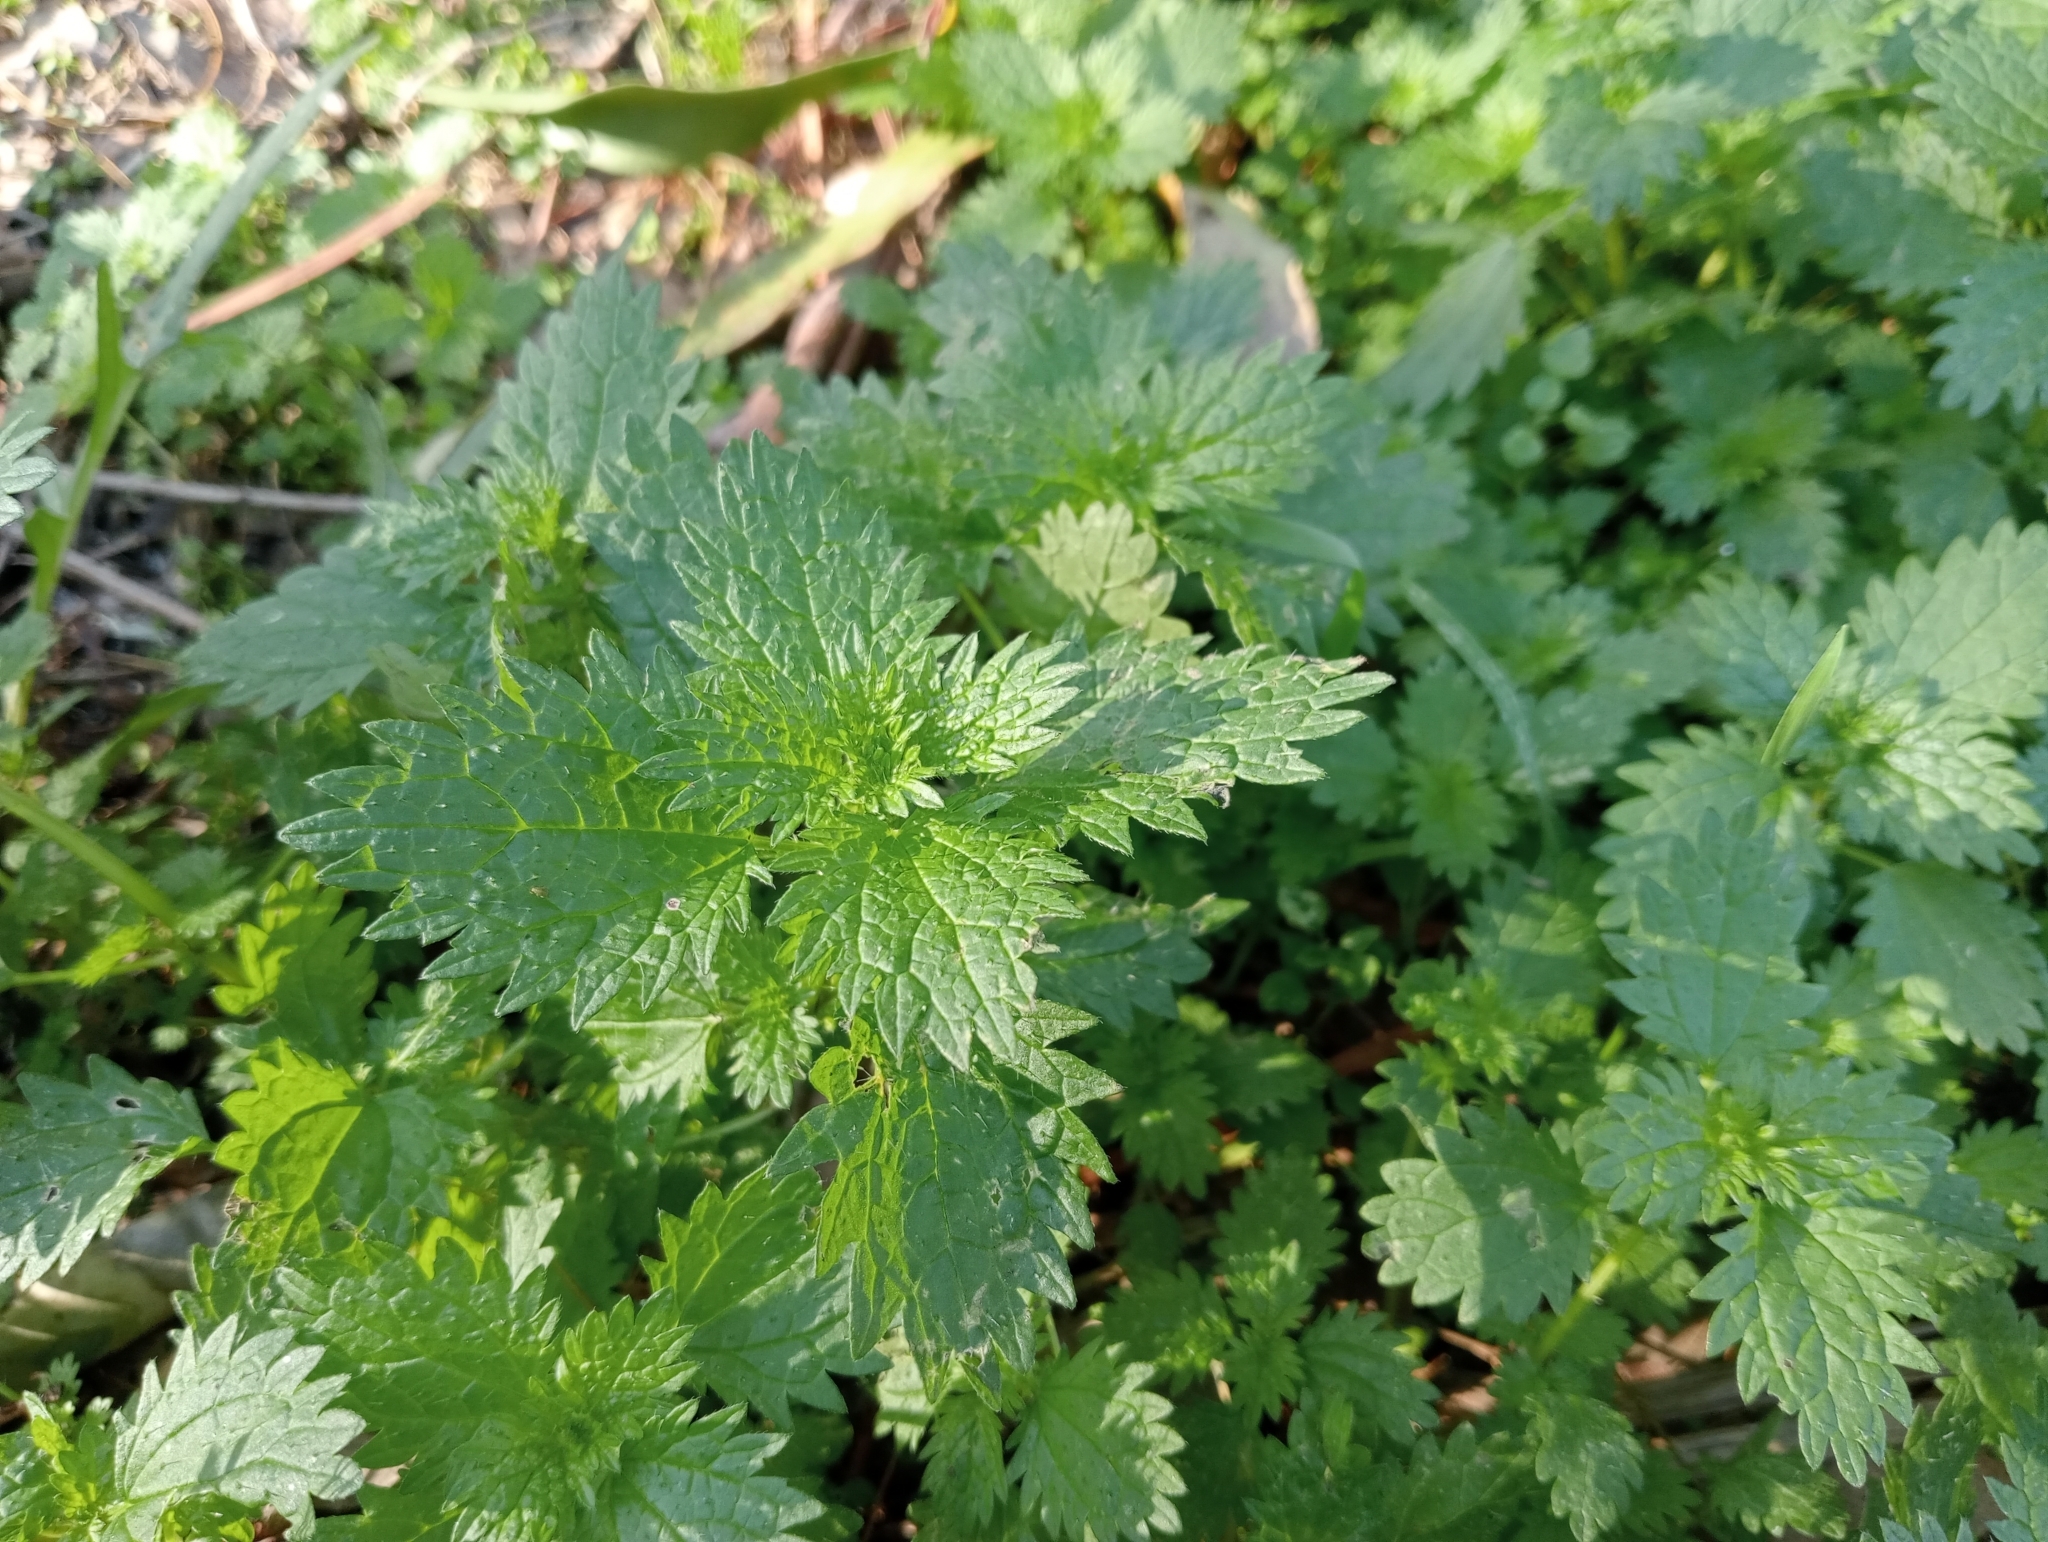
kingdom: Plantae
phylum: Tracheophyta
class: Magnoliopsida
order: Rosales
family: Urticaceae
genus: Urtica
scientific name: Urtica urens
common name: Dwarf nettle
